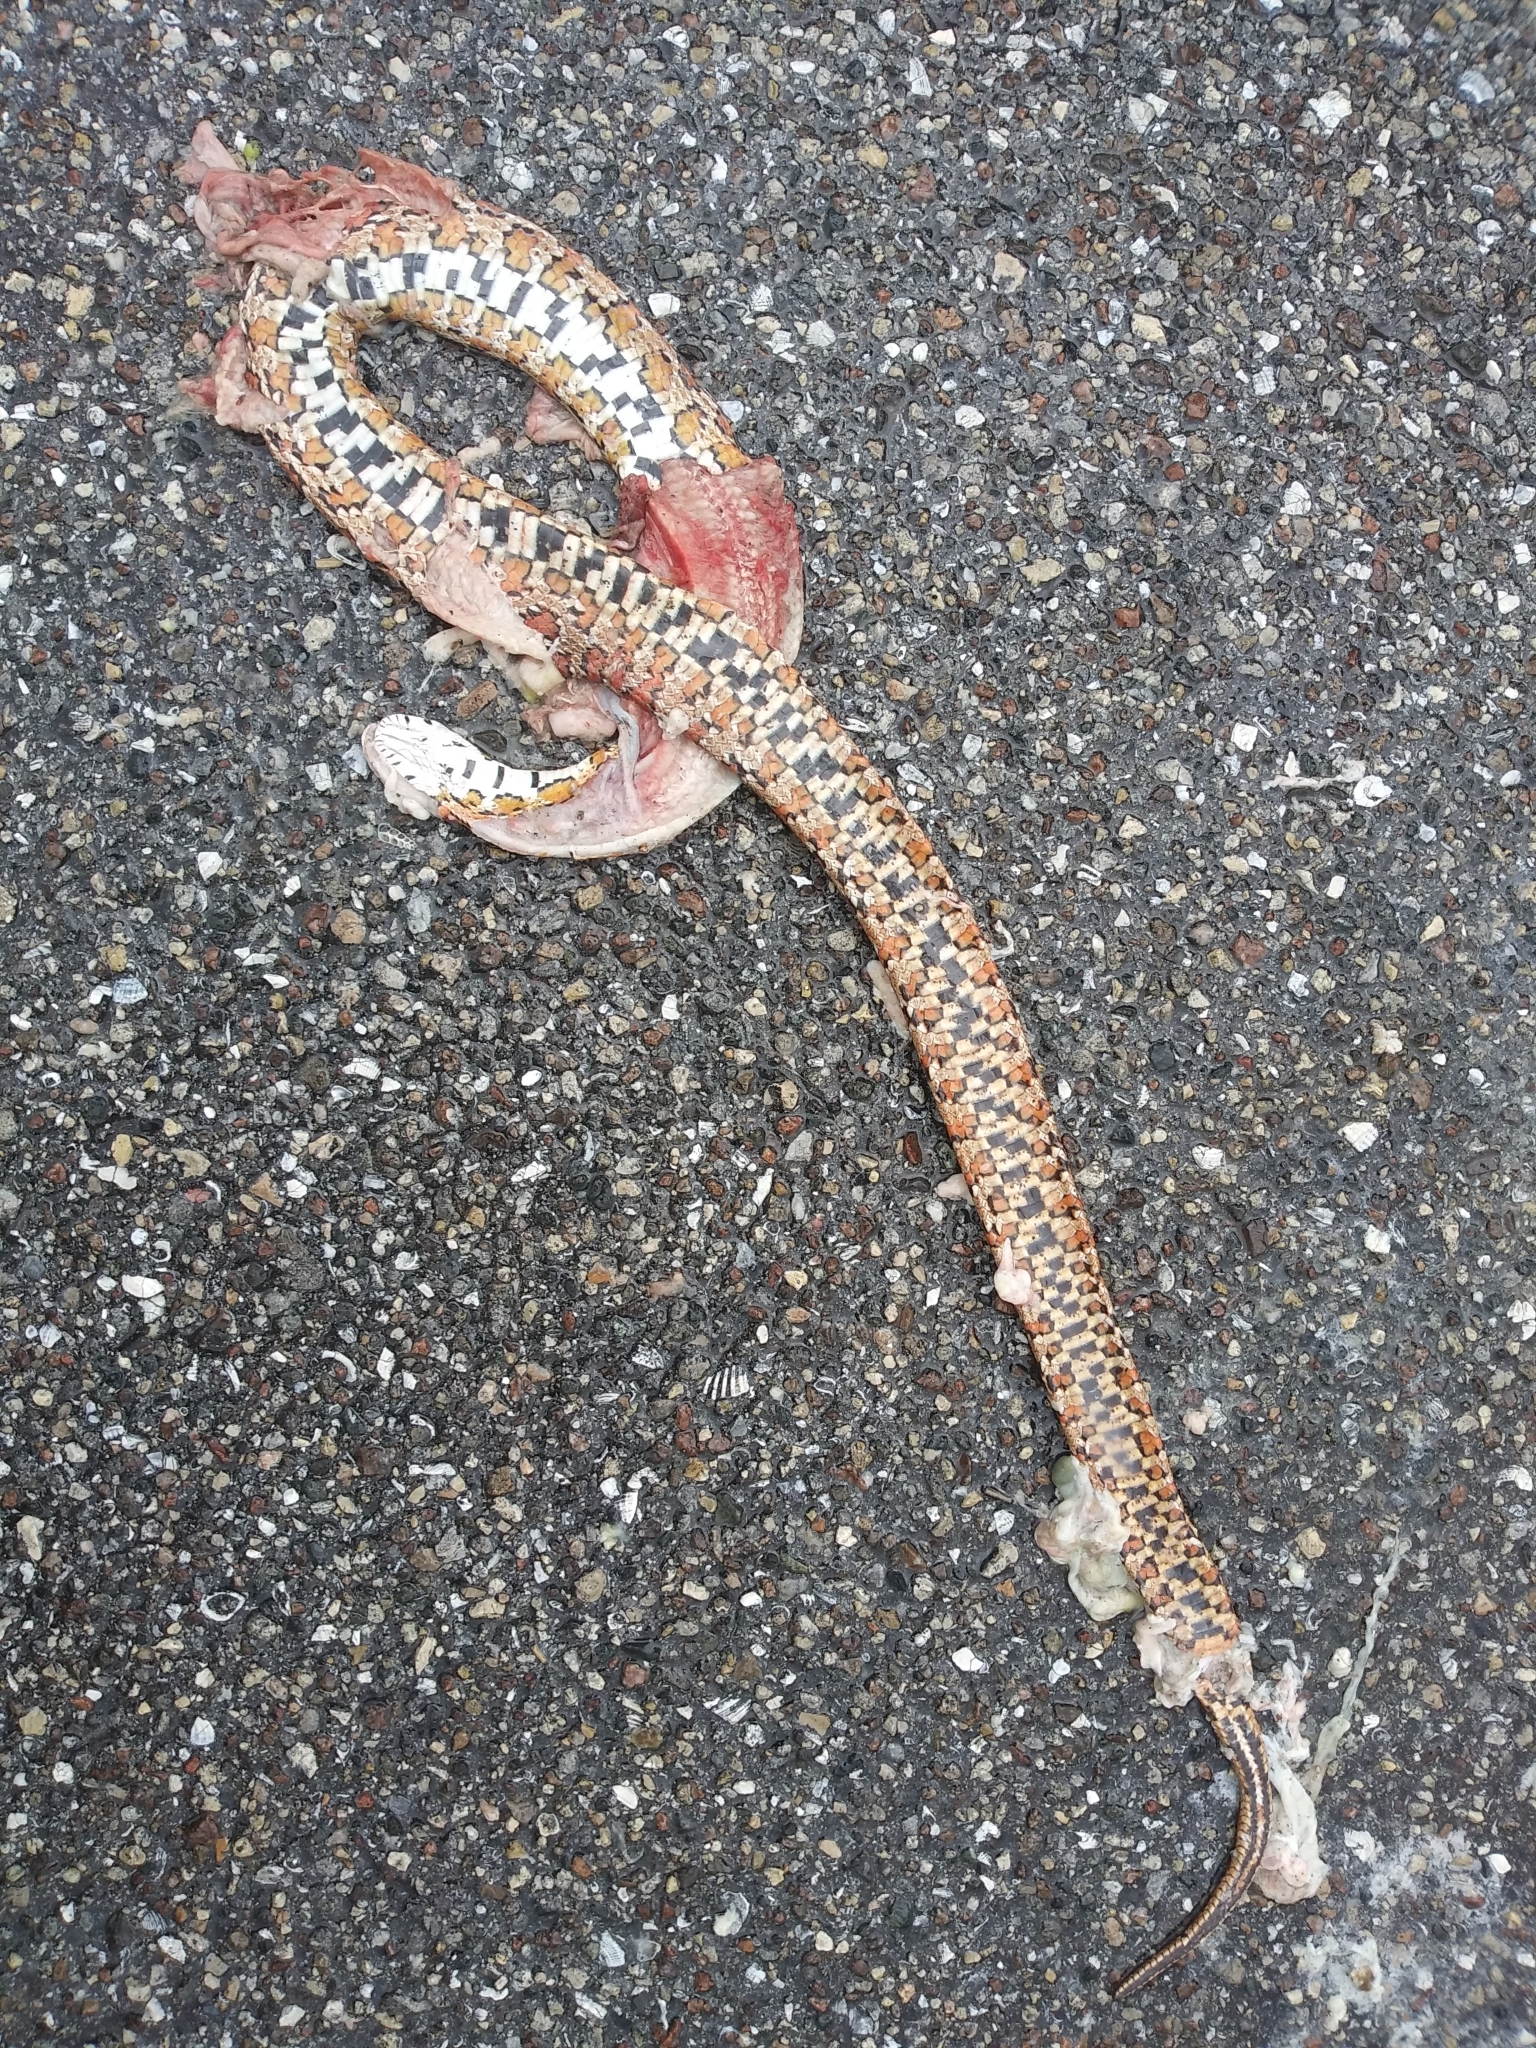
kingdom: Animalia
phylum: Chordata
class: Squamata
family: Colubridae
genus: Pantherophis
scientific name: Pantherophis guttatus
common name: Red cornsnake
